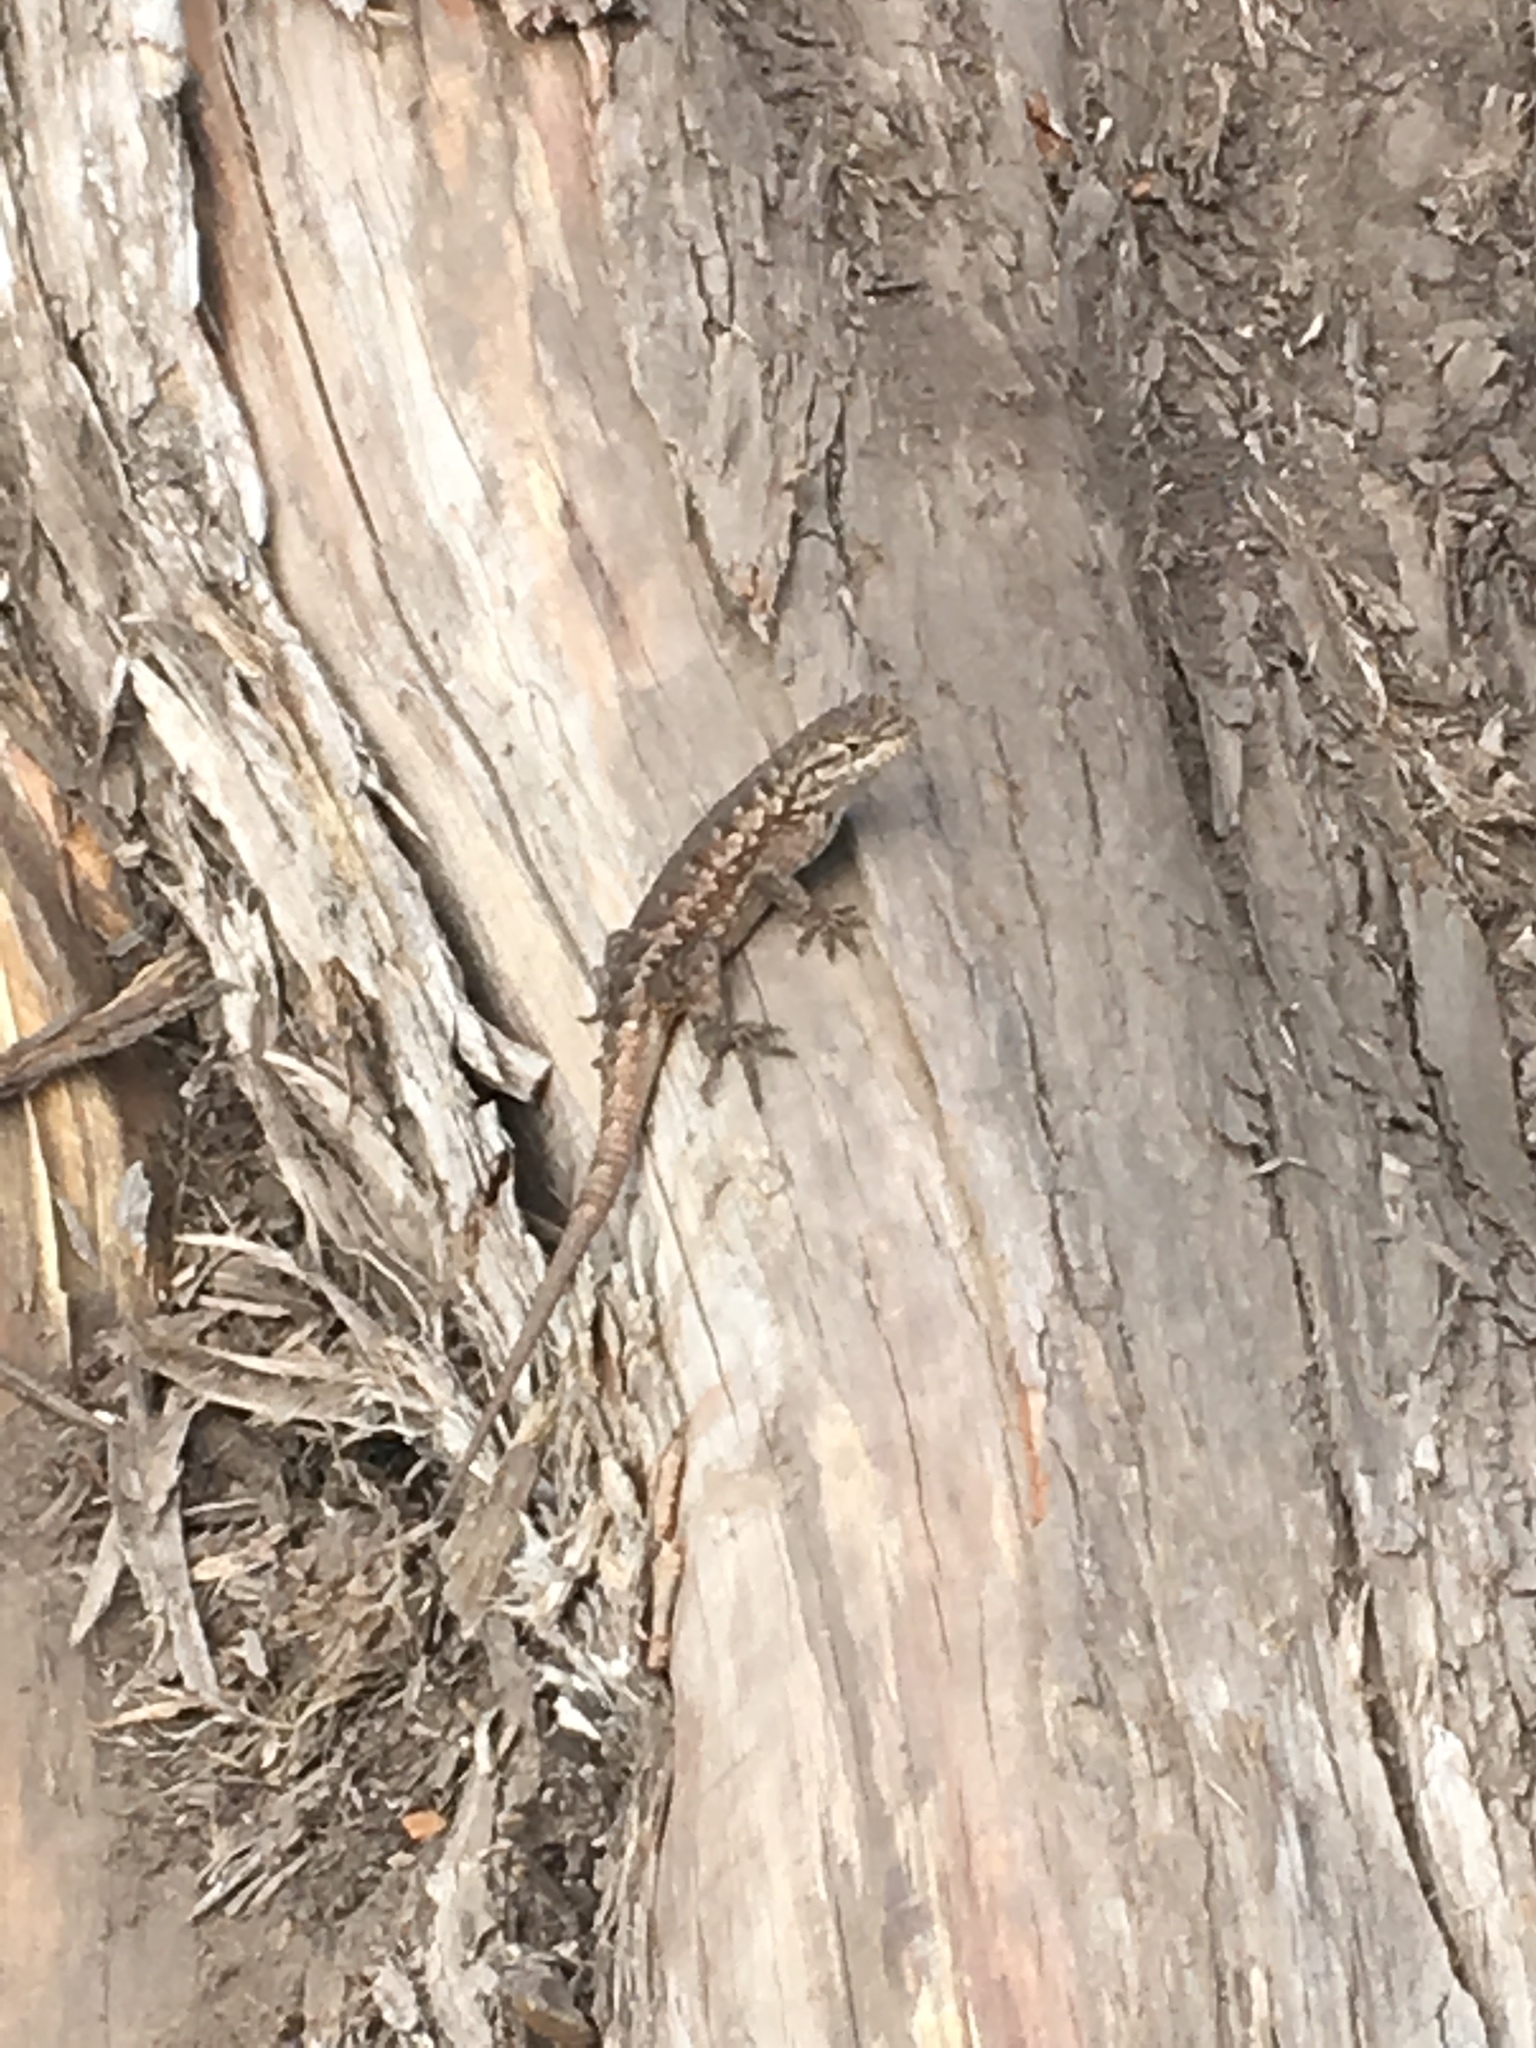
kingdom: Animalia
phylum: Chordata
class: Squamata
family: Phrynosomatidae
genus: Sceloporus
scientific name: Sceloporus occidentalis
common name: Western fence lizard
